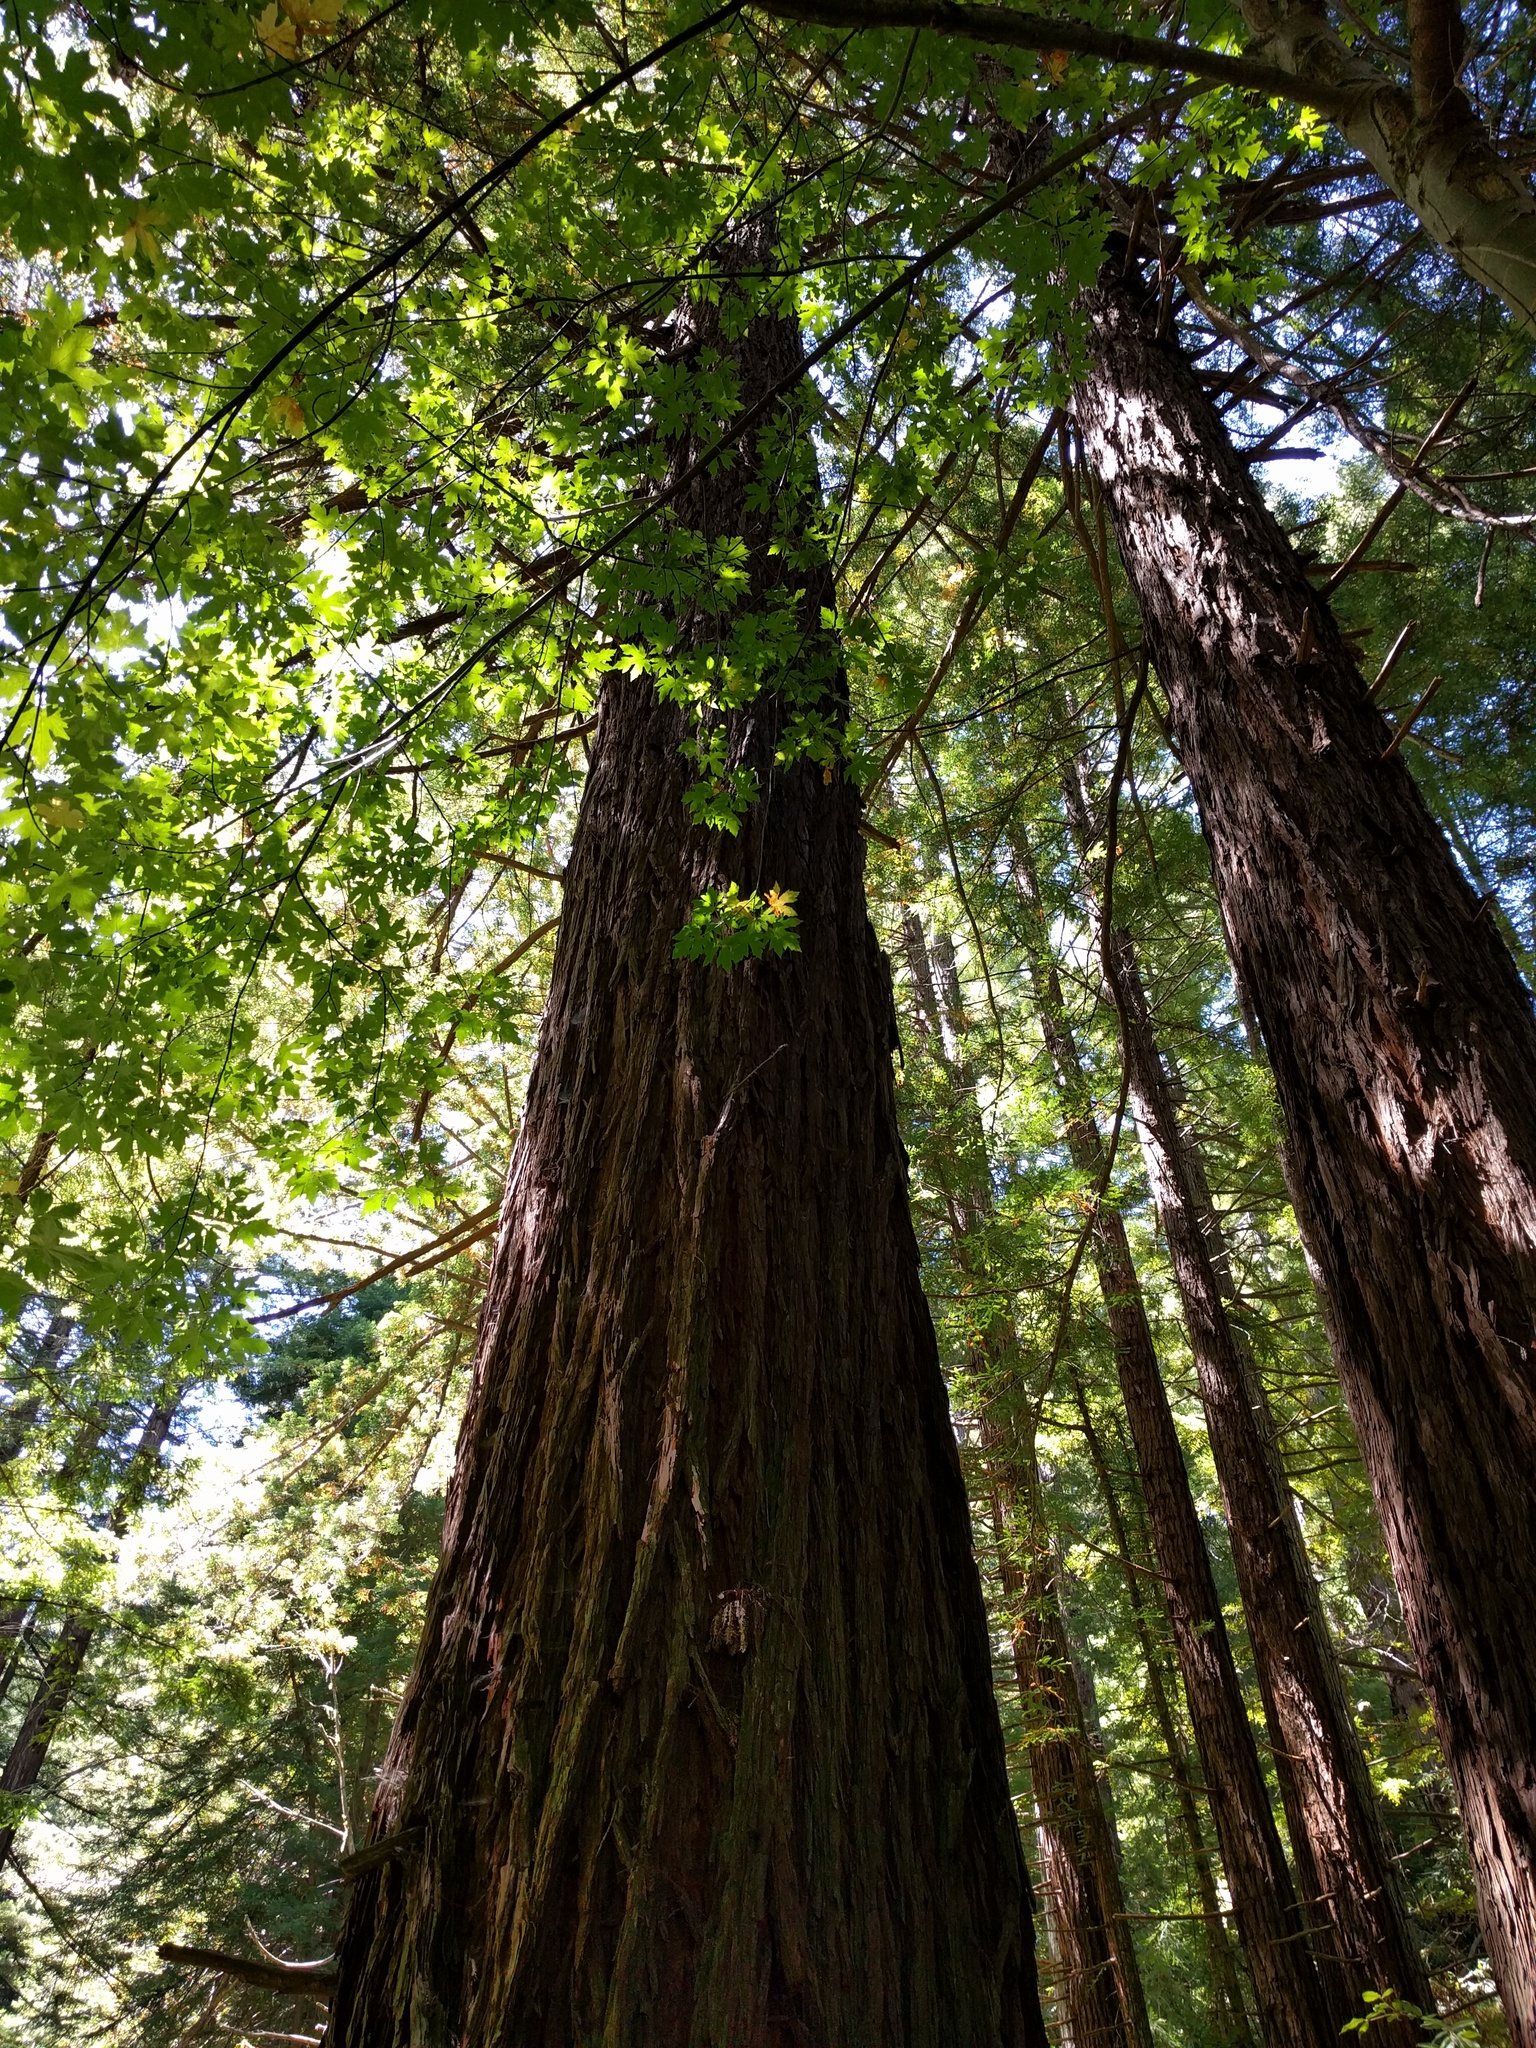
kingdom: Plantae
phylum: Tracheophyta
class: Pinopsida
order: Pinales
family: Cupressaceae
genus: Sequoia
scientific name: Sequoia sempervirens
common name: Coast redwood
